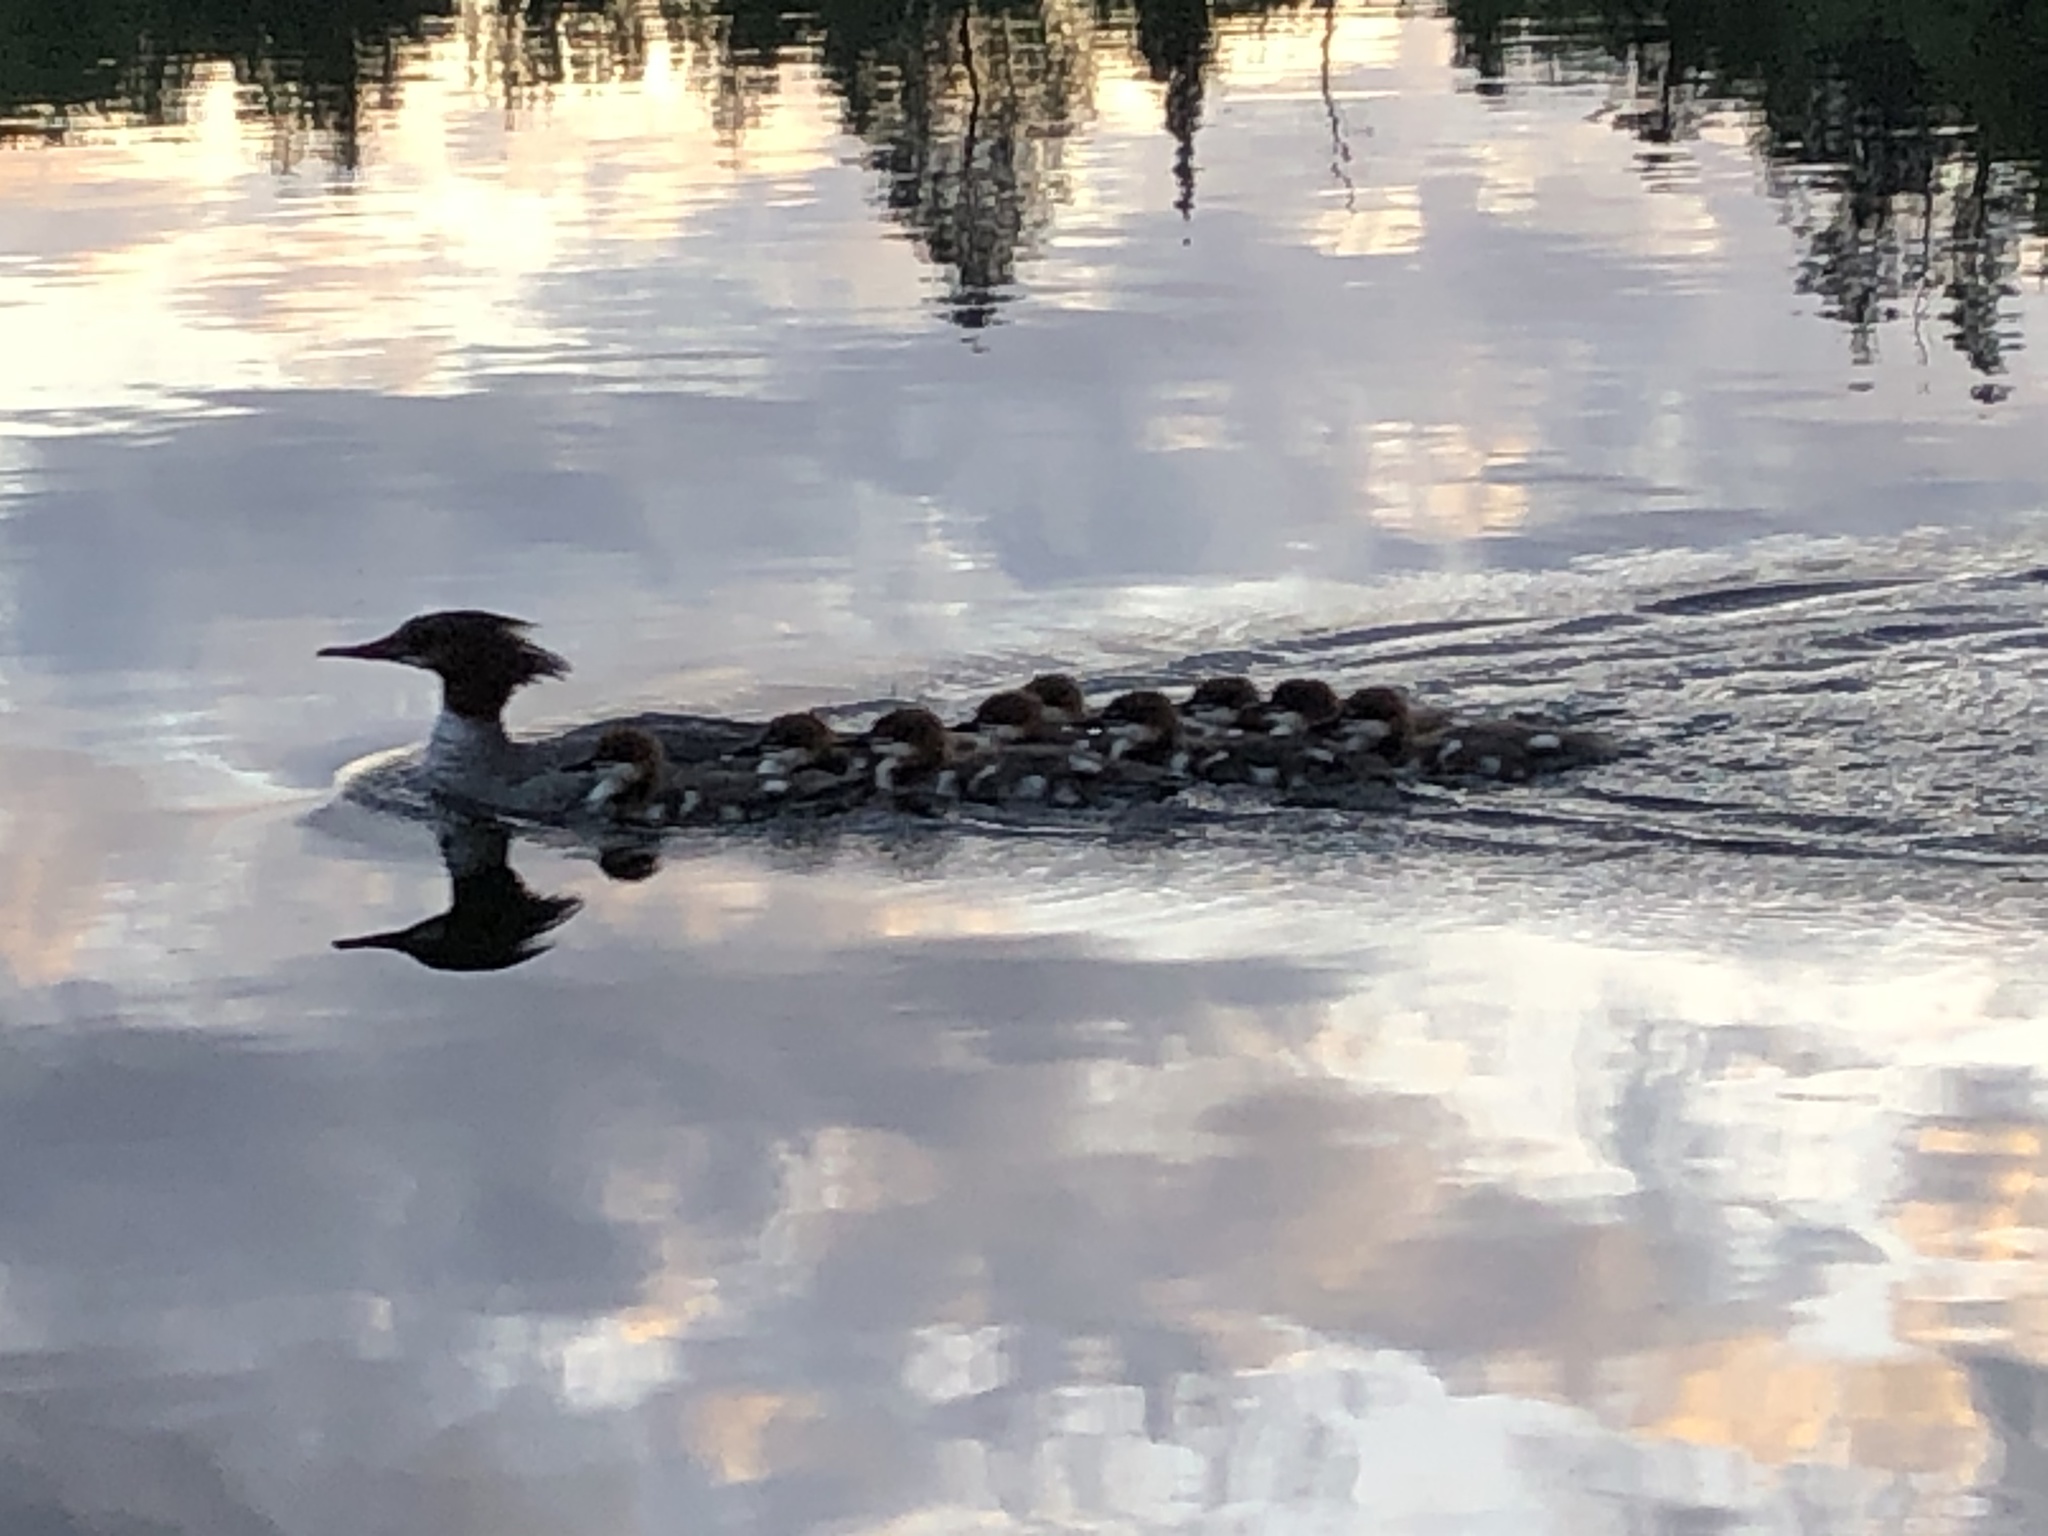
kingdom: Animalia
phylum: Chordata
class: Aves
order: Anseriformes
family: Anatidae
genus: Mergus
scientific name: Mergus merganser
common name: Common merganser
